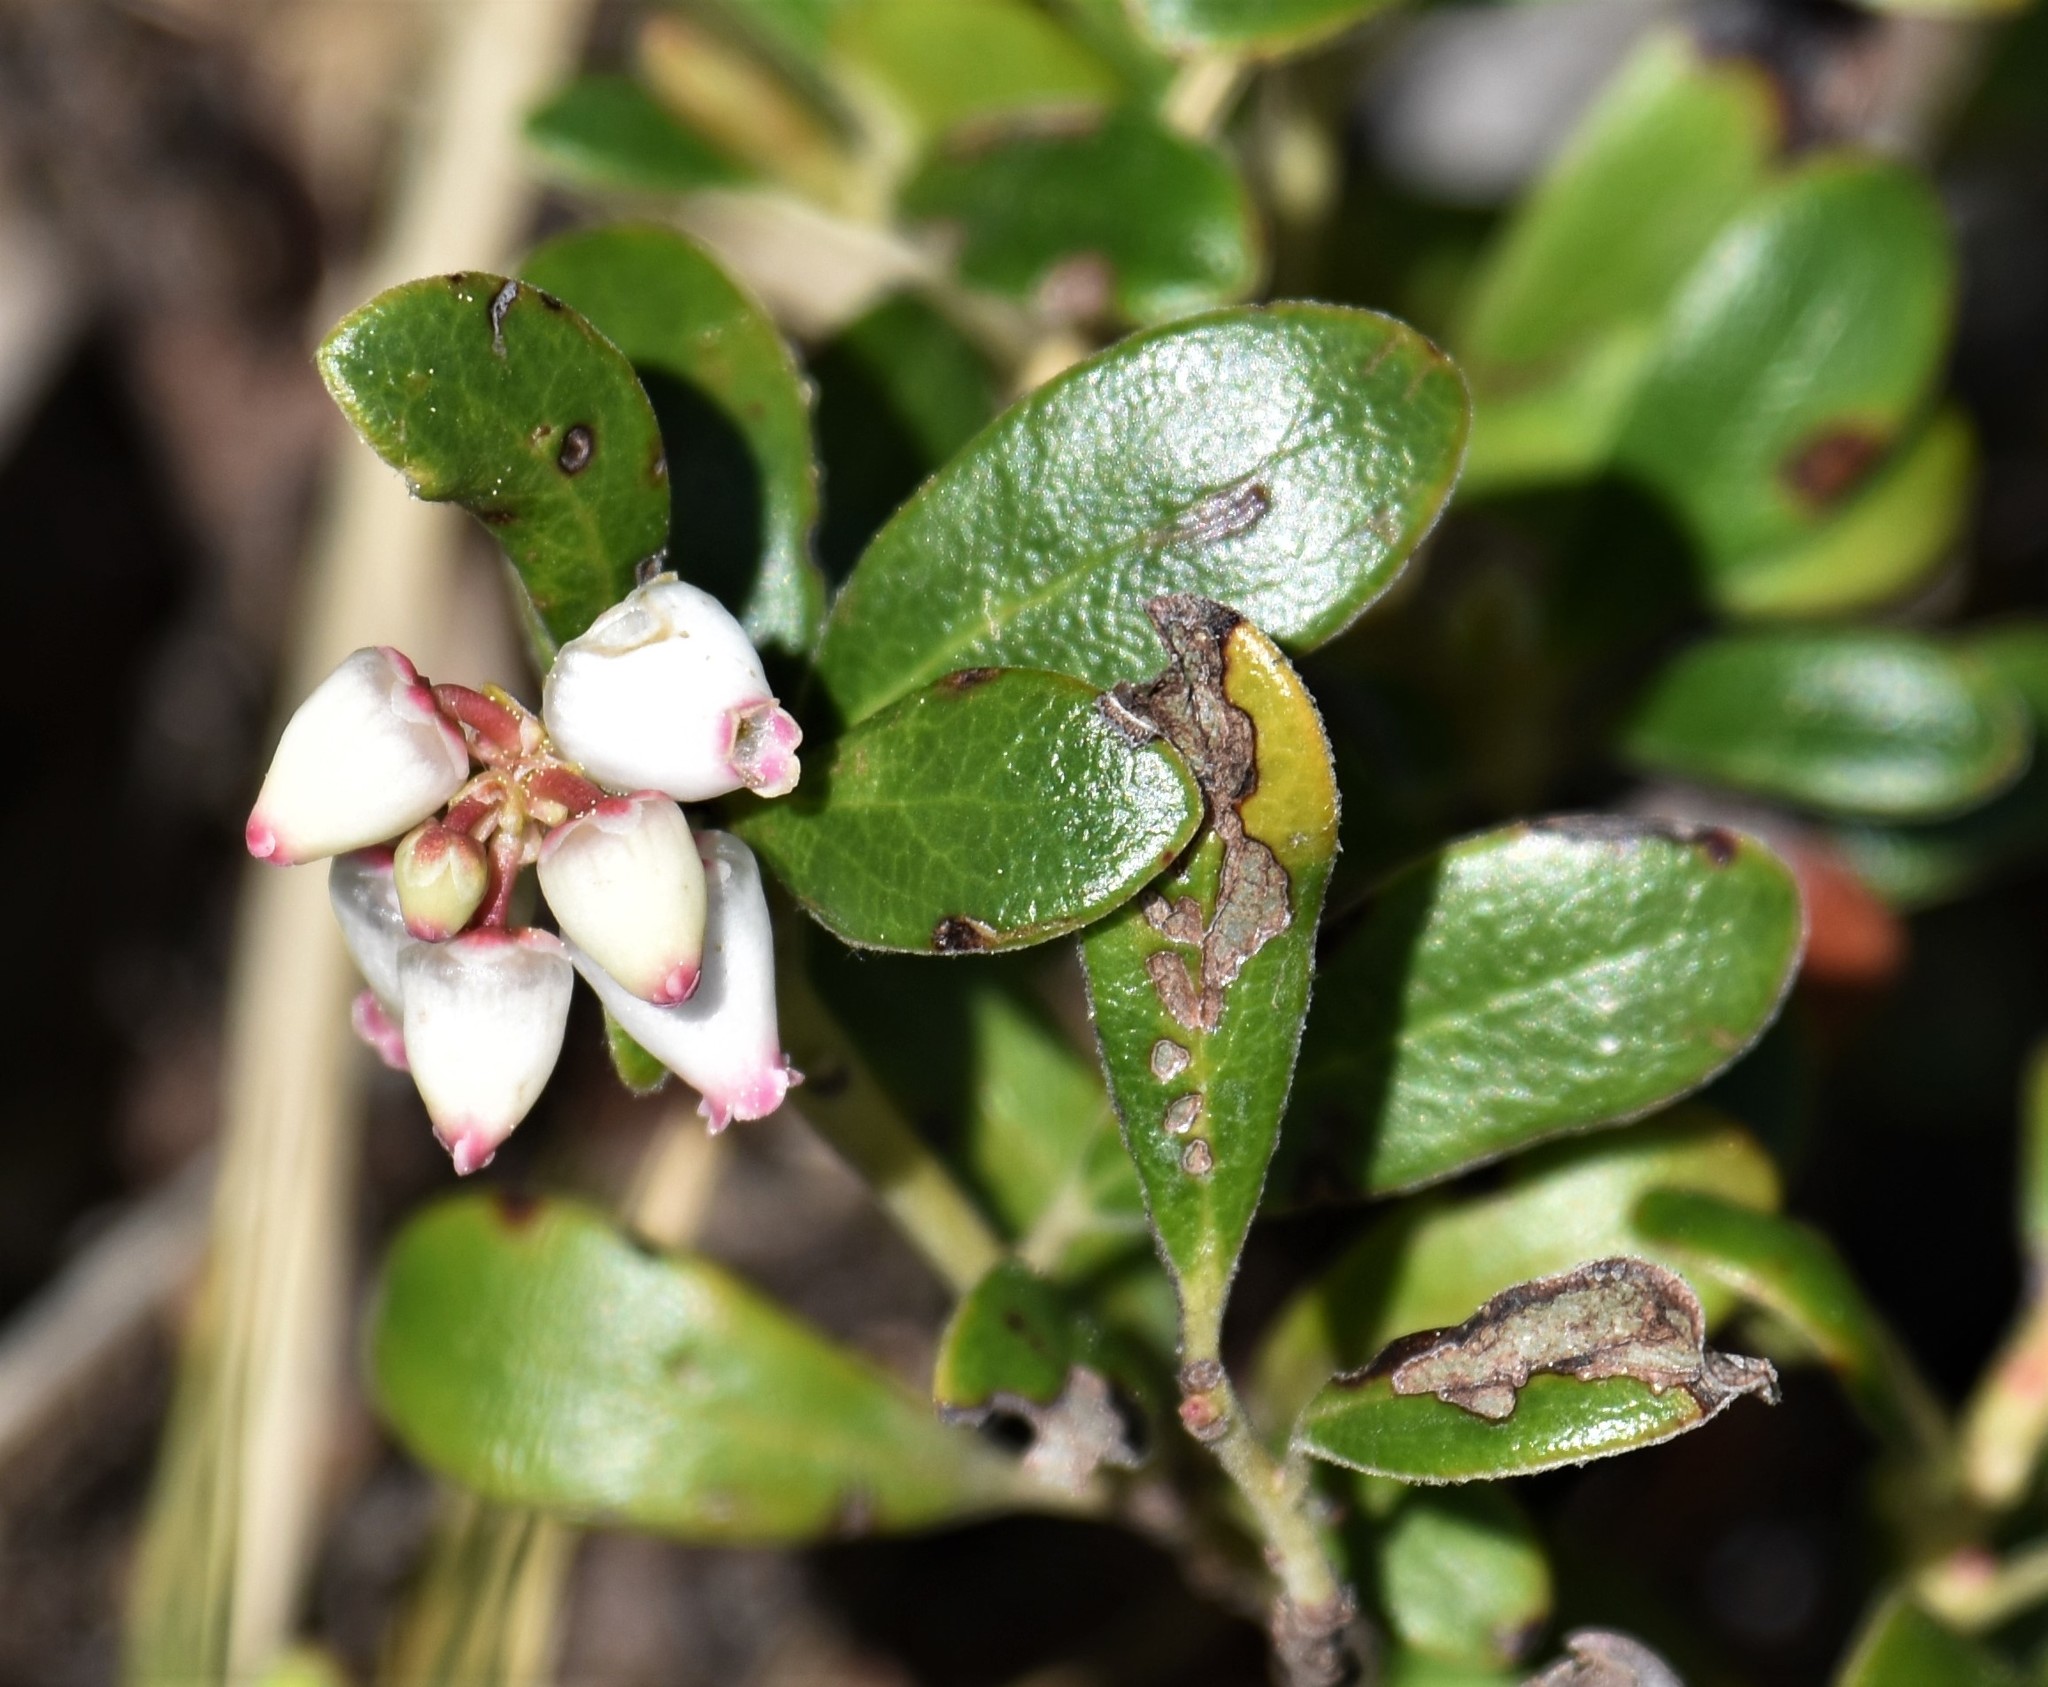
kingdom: Plantae
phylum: Tracheophyta
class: Magnoliopsida
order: Ericales
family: Ericaceae
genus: Arctostaphylos
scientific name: Arctostaphylos uva-ursi
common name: Bearberry
